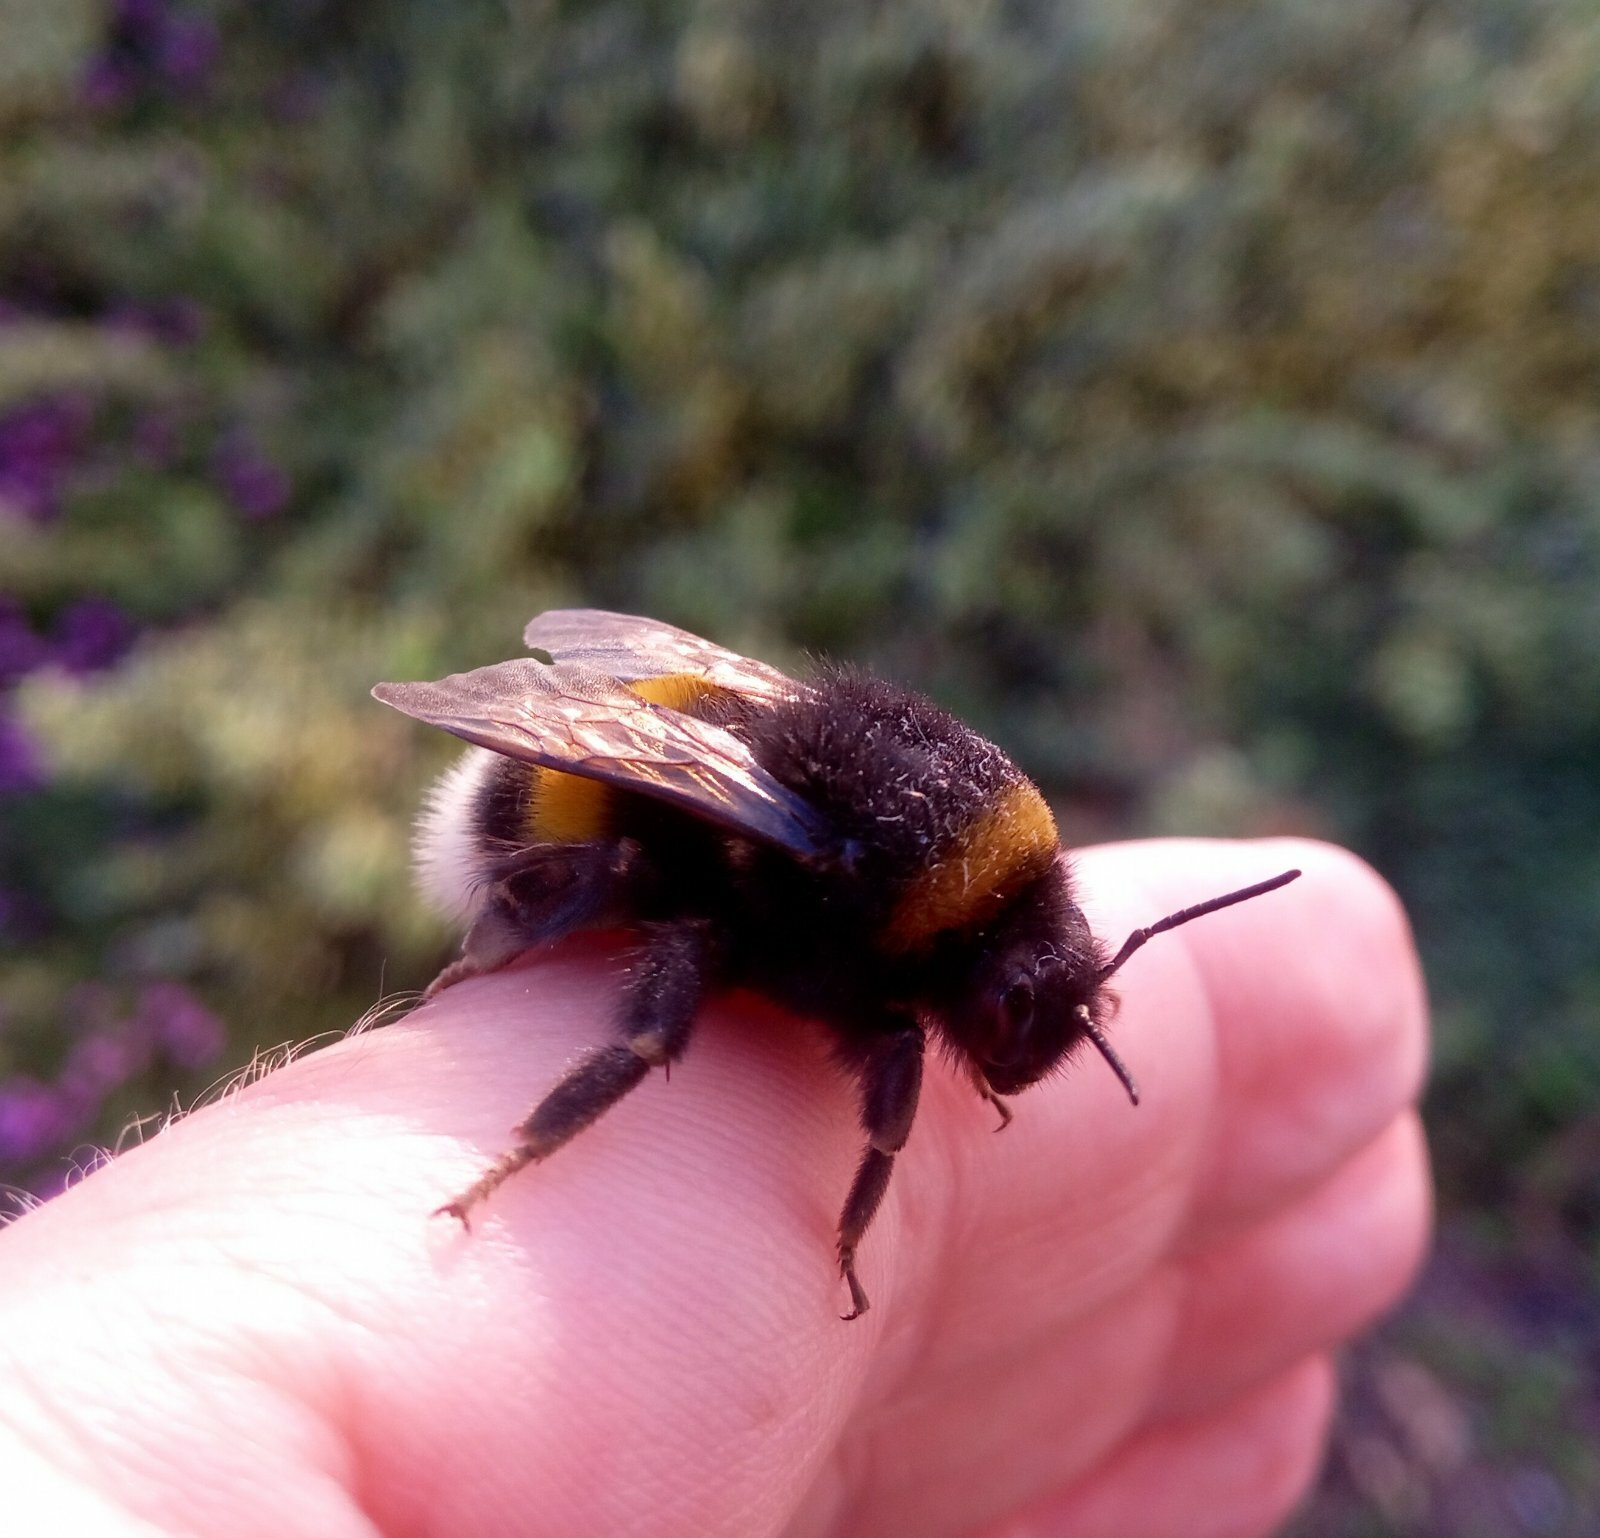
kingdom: Animalia
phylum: Arthropoda
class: Insecta
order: Hymenoptera
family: Apidae
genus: Bombus
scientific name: Bombus
